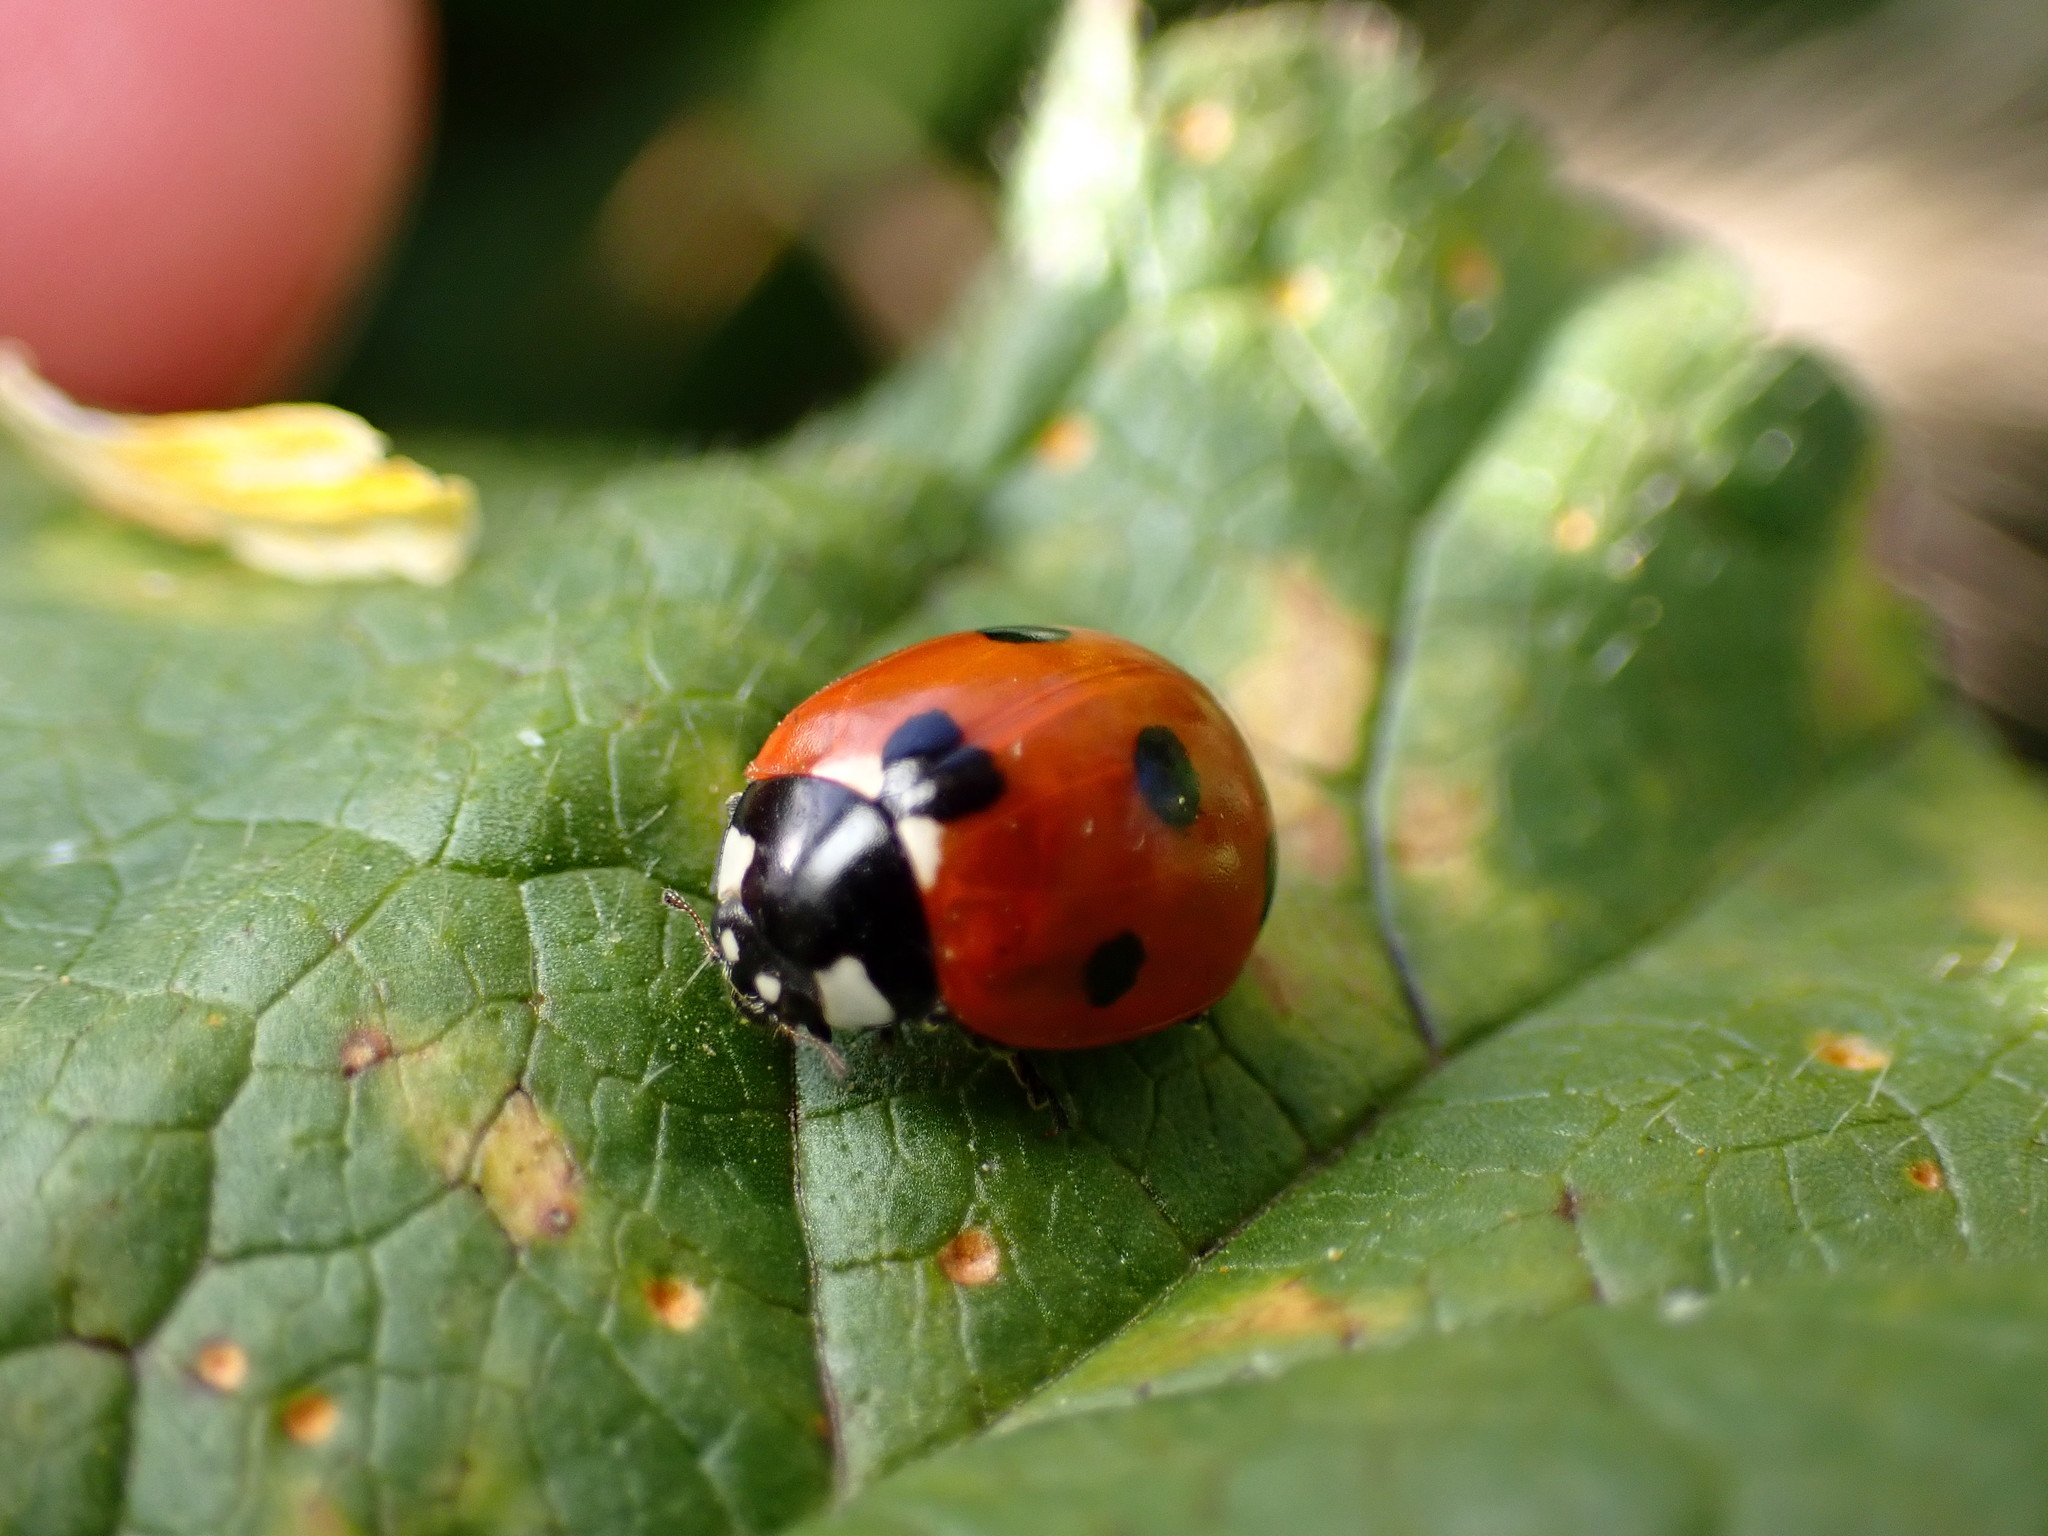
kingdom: Animalia
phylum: Arthropoda
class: Insecta
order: Coleoptera
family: Coccinellidae
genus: Coccinella
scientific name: Coccinella septempunctata
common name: Sevenspotted lady beetle
